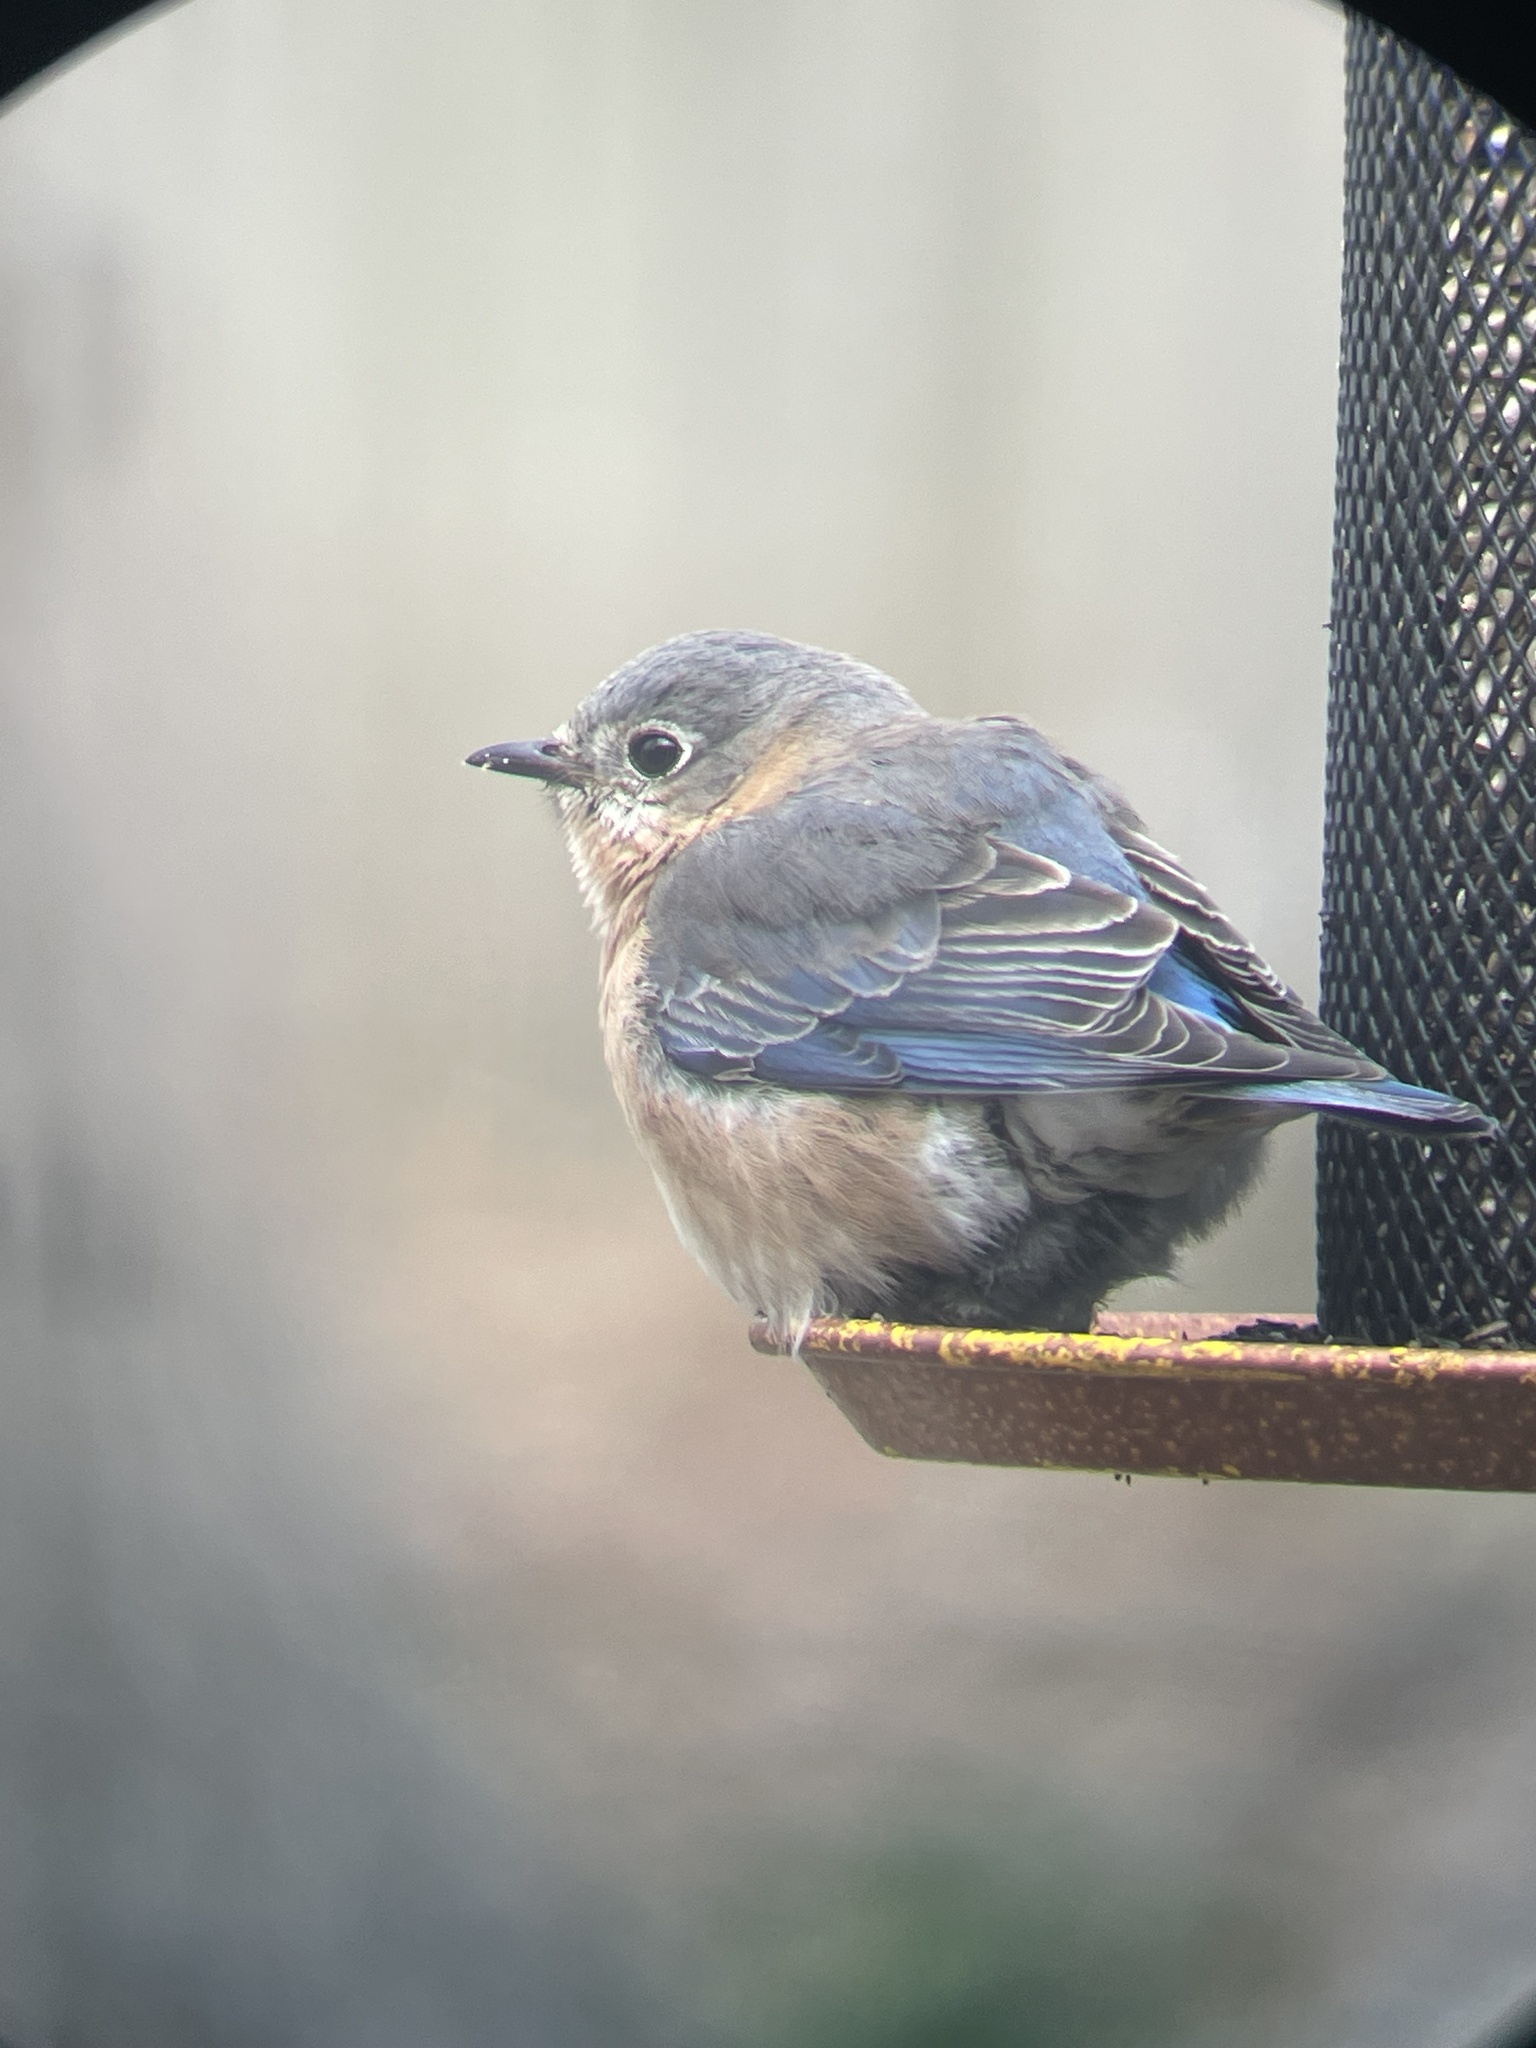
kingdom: Animalia
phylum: Chordata
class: Aves
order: Passeriformes
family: Turdidae
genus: Sialia
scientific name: Sialia sialis
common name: Eastern bluebird
